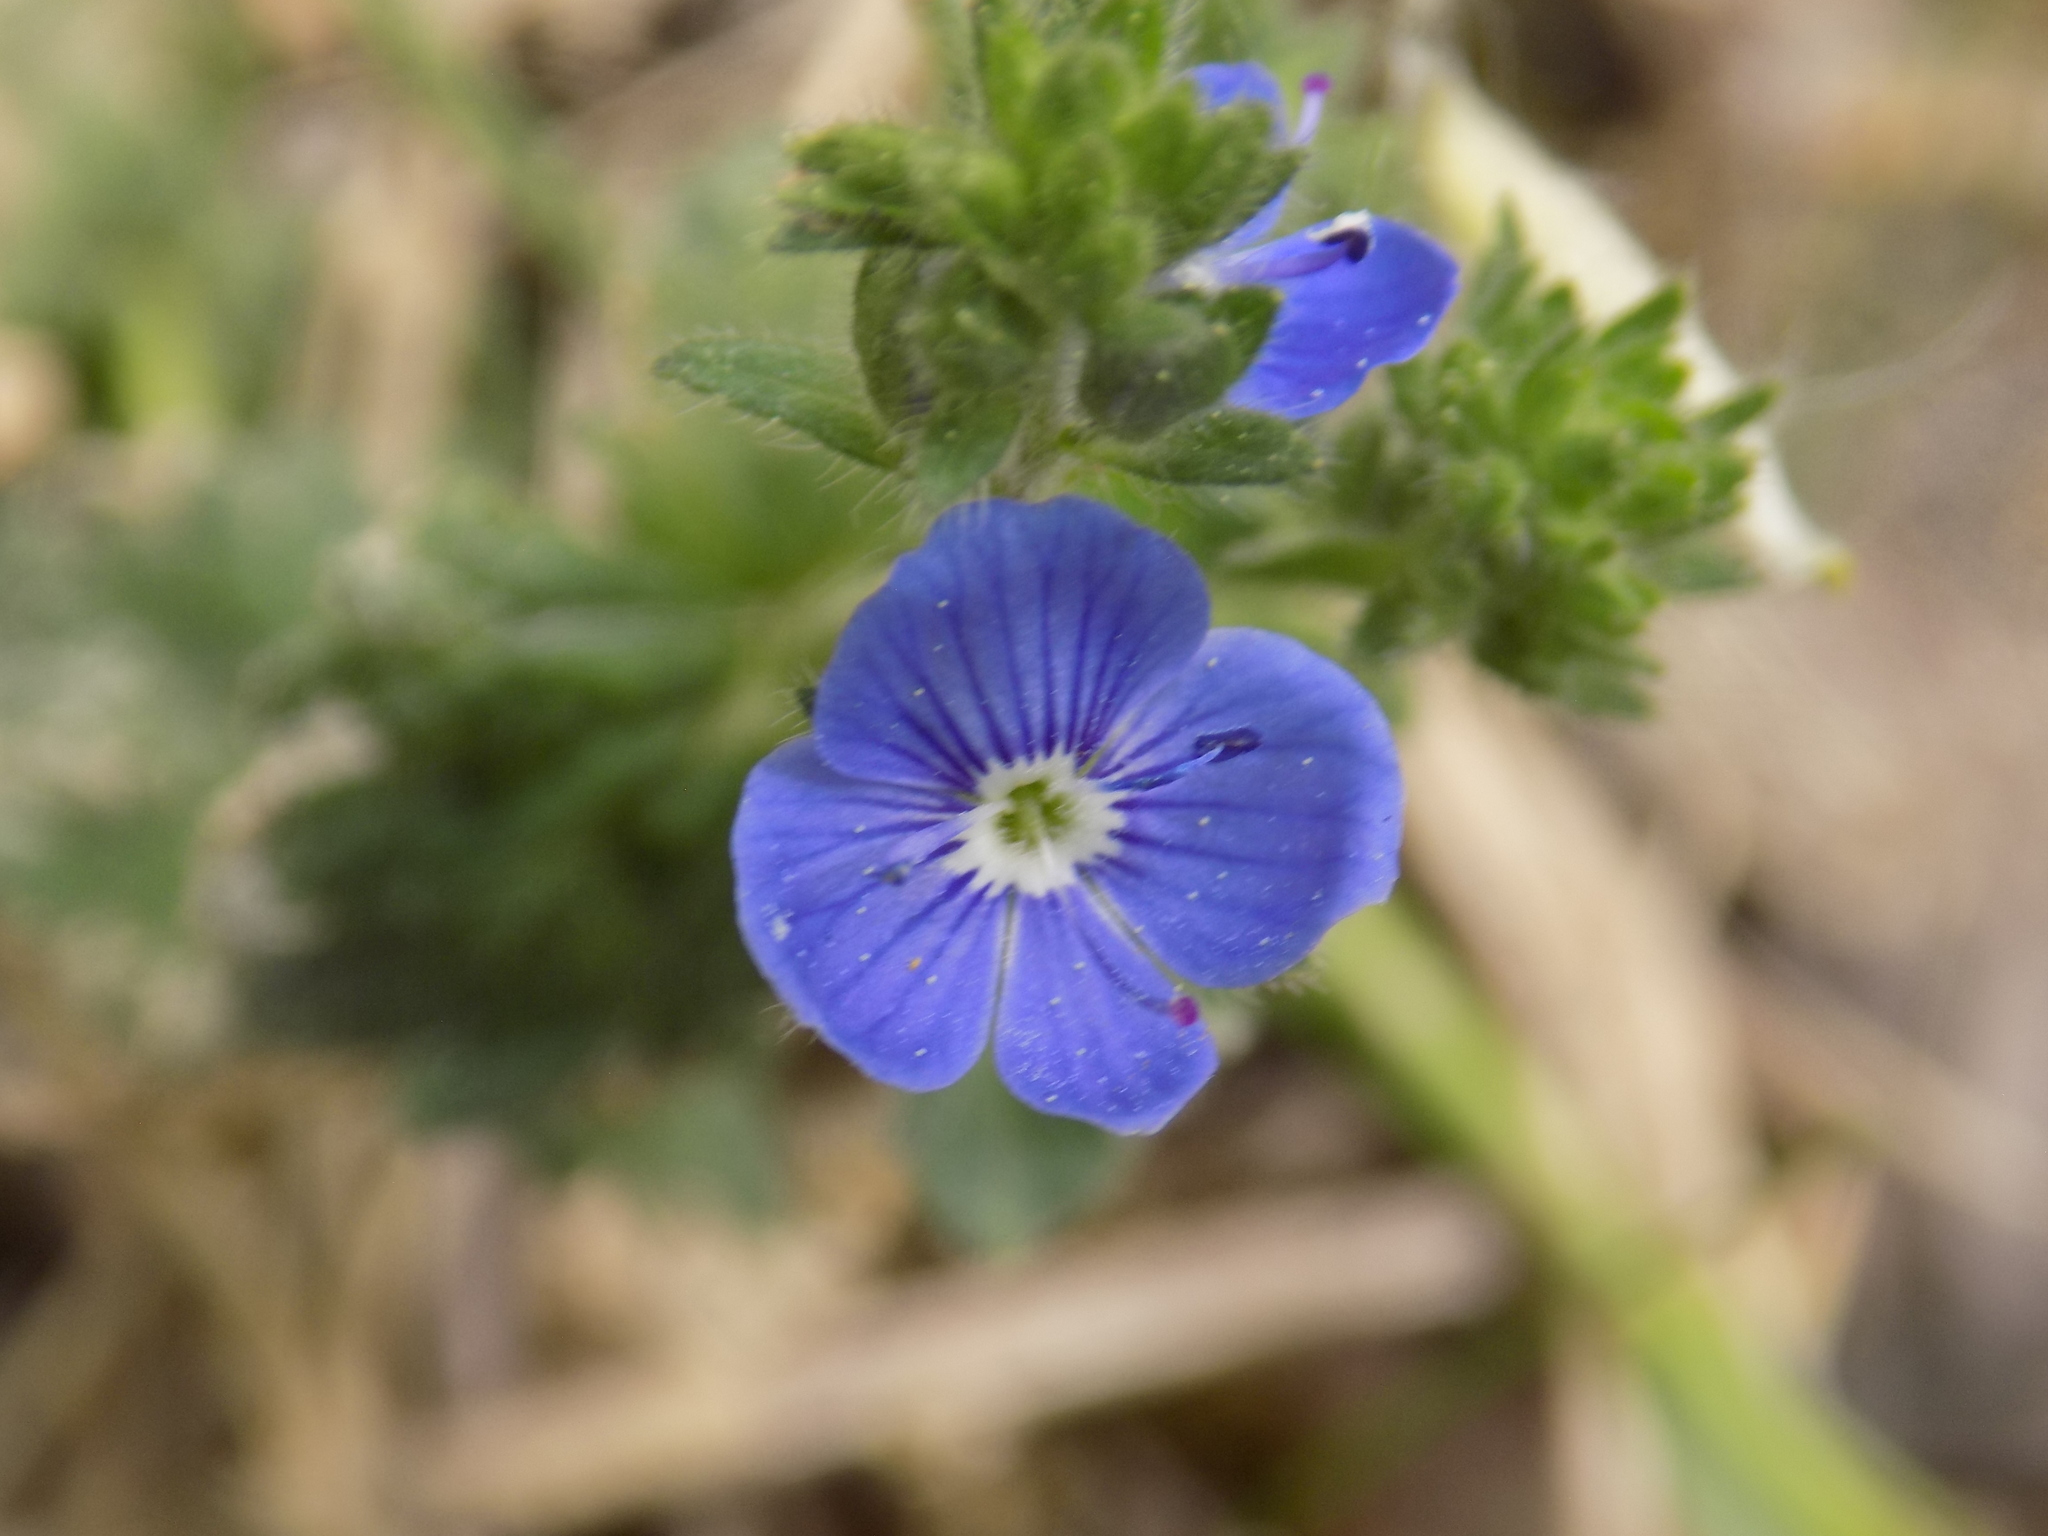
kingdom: Plantae
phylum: Tracheophyta
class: Magnoliopsida
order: Lamiales
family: Plantaginaceae
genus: Veronica
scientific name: Veronica chamaedrys
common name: Germander speedwell
